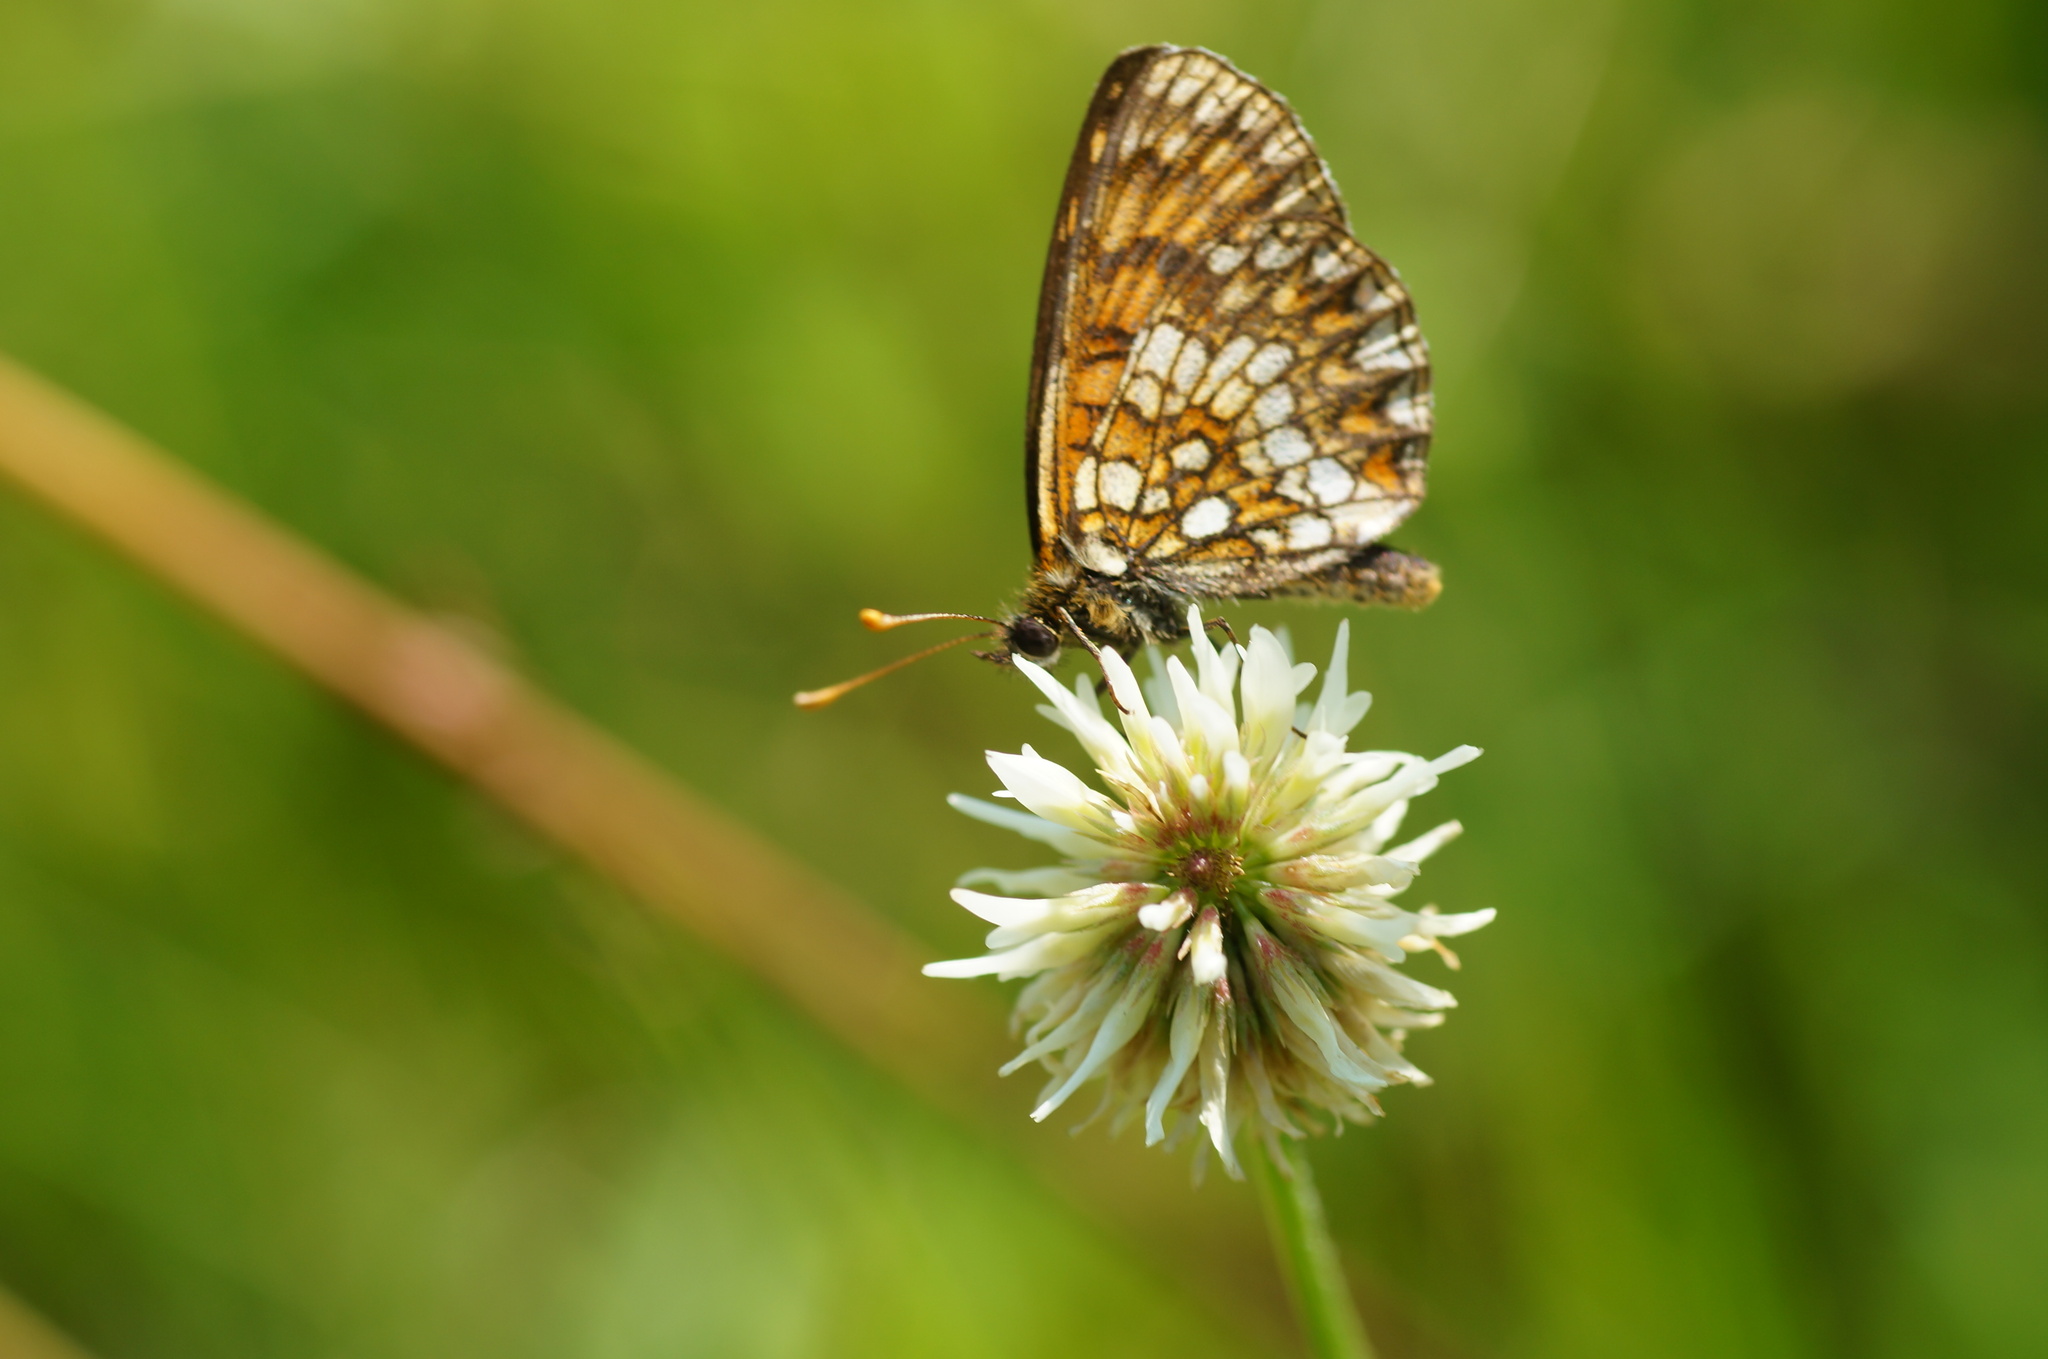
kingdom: Animalia
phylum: Arthropoda
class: Insecta
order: Lepidoptera
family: Nymphalidae
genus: Melitaea
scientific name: Melitaea
